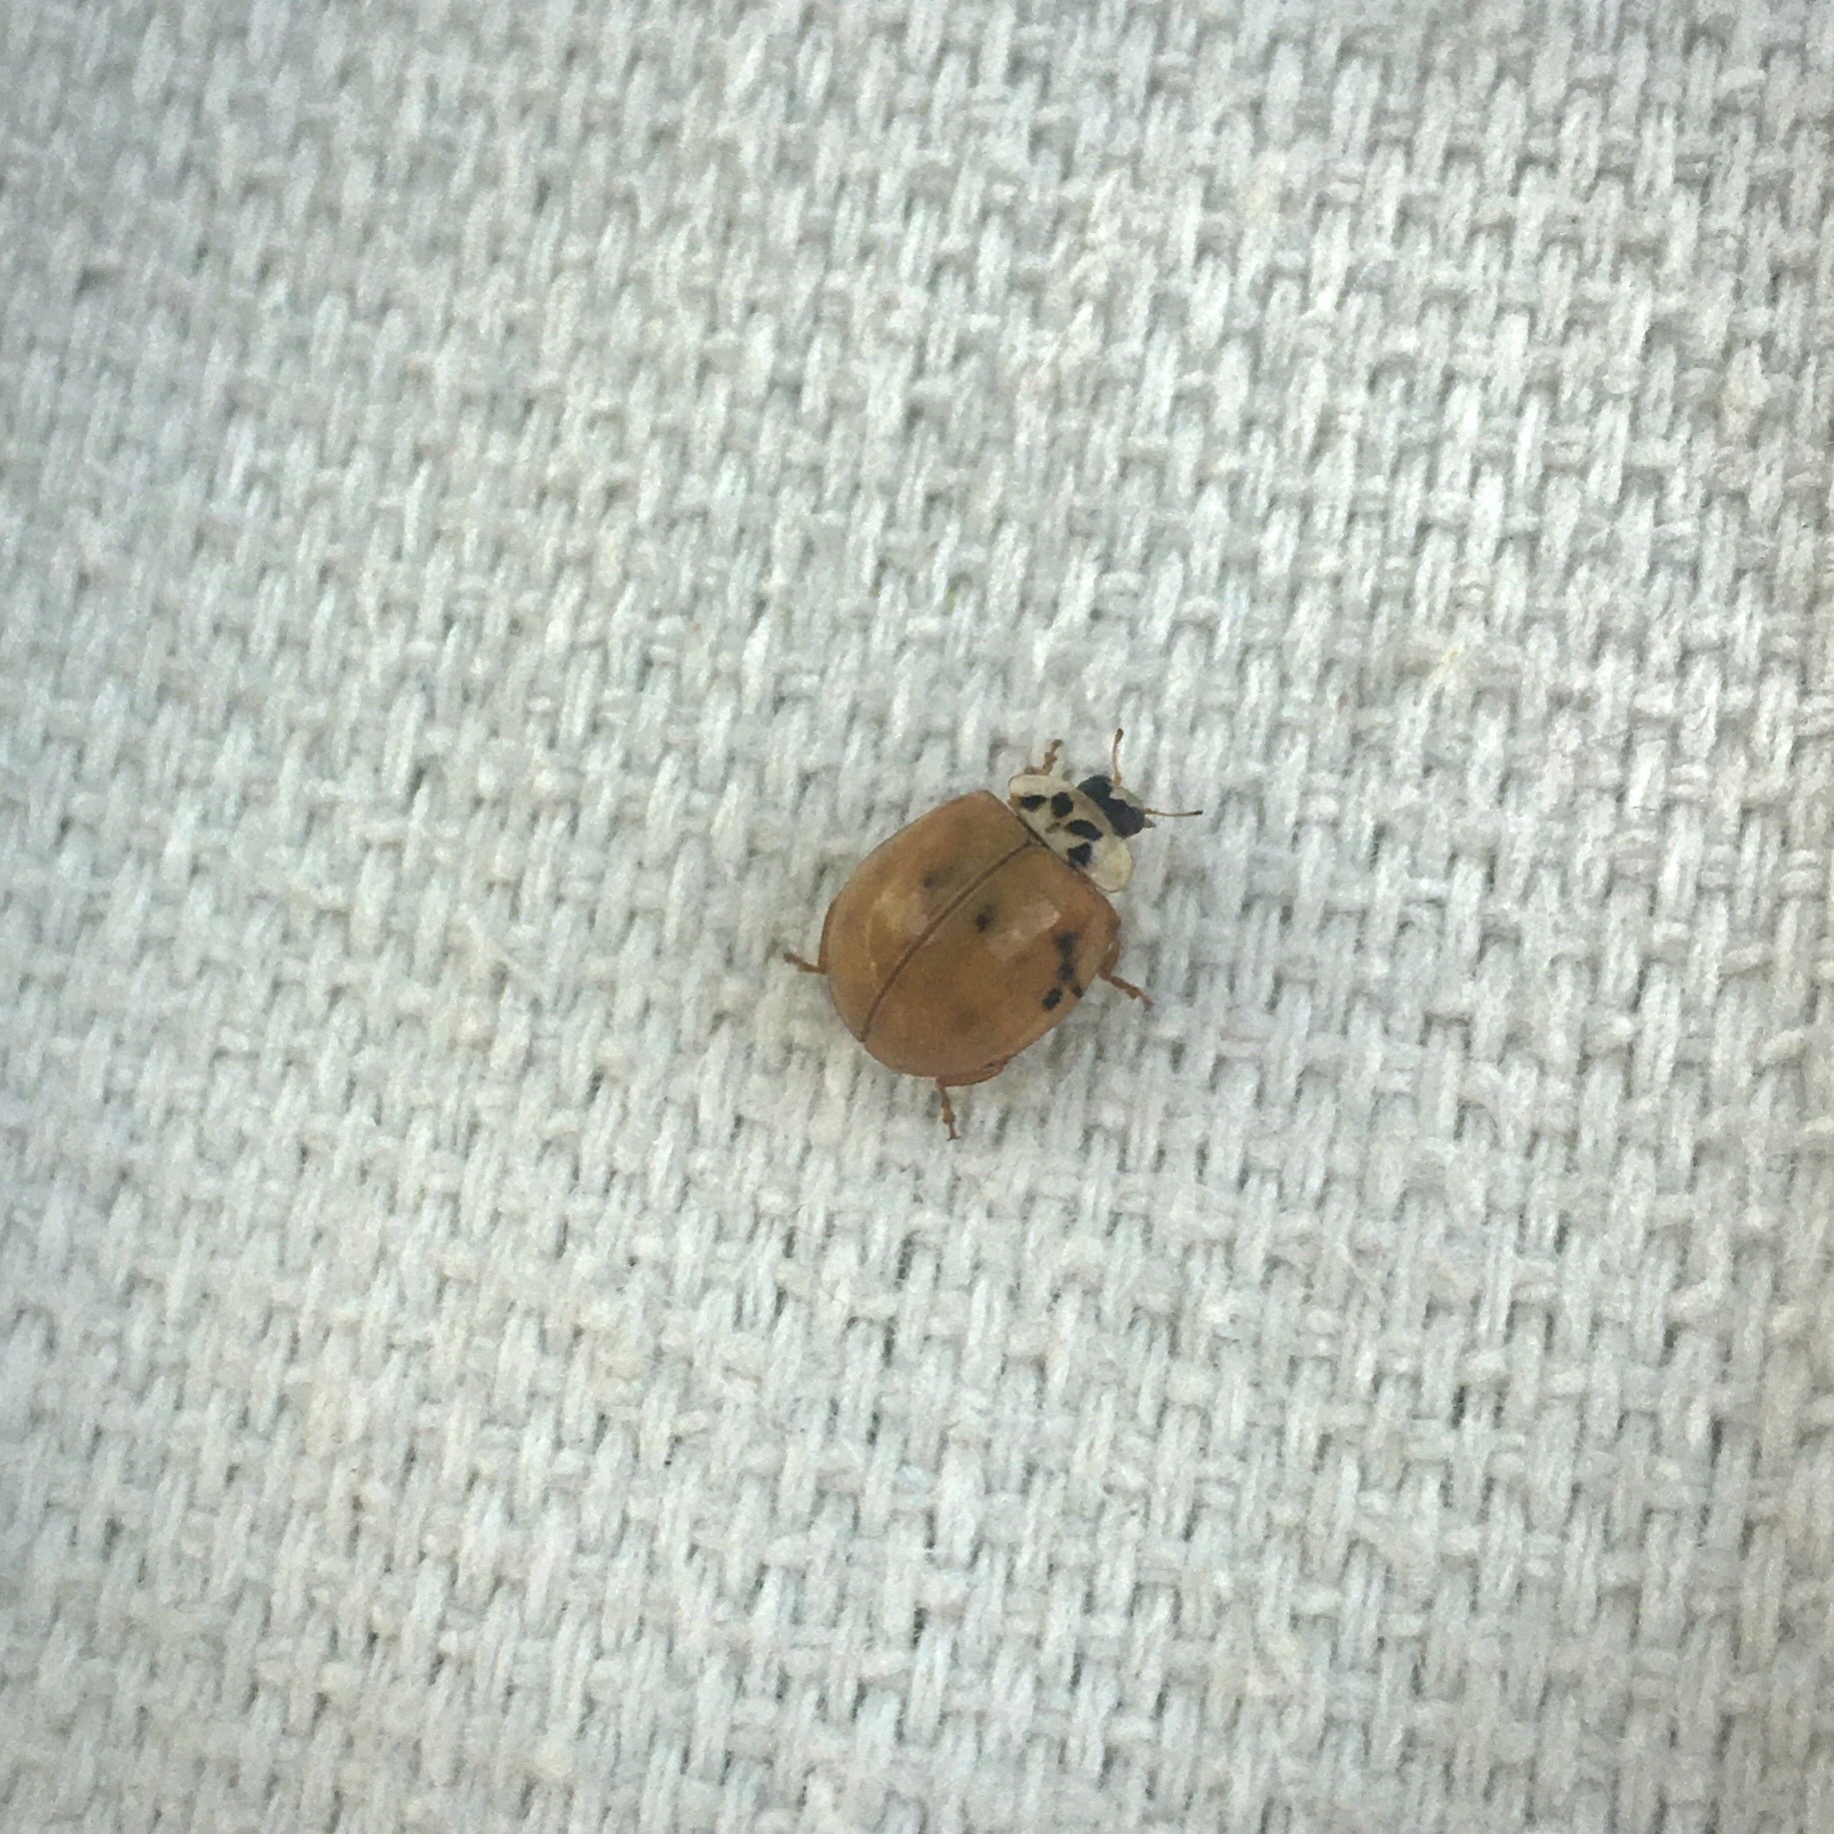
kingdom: Animalia
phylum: Arthropoda
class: Insecta
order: Coleoptera
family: Coccinellidae
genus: Harmonia
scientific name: Harmonia axyridis
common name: Harlequin ladybird
